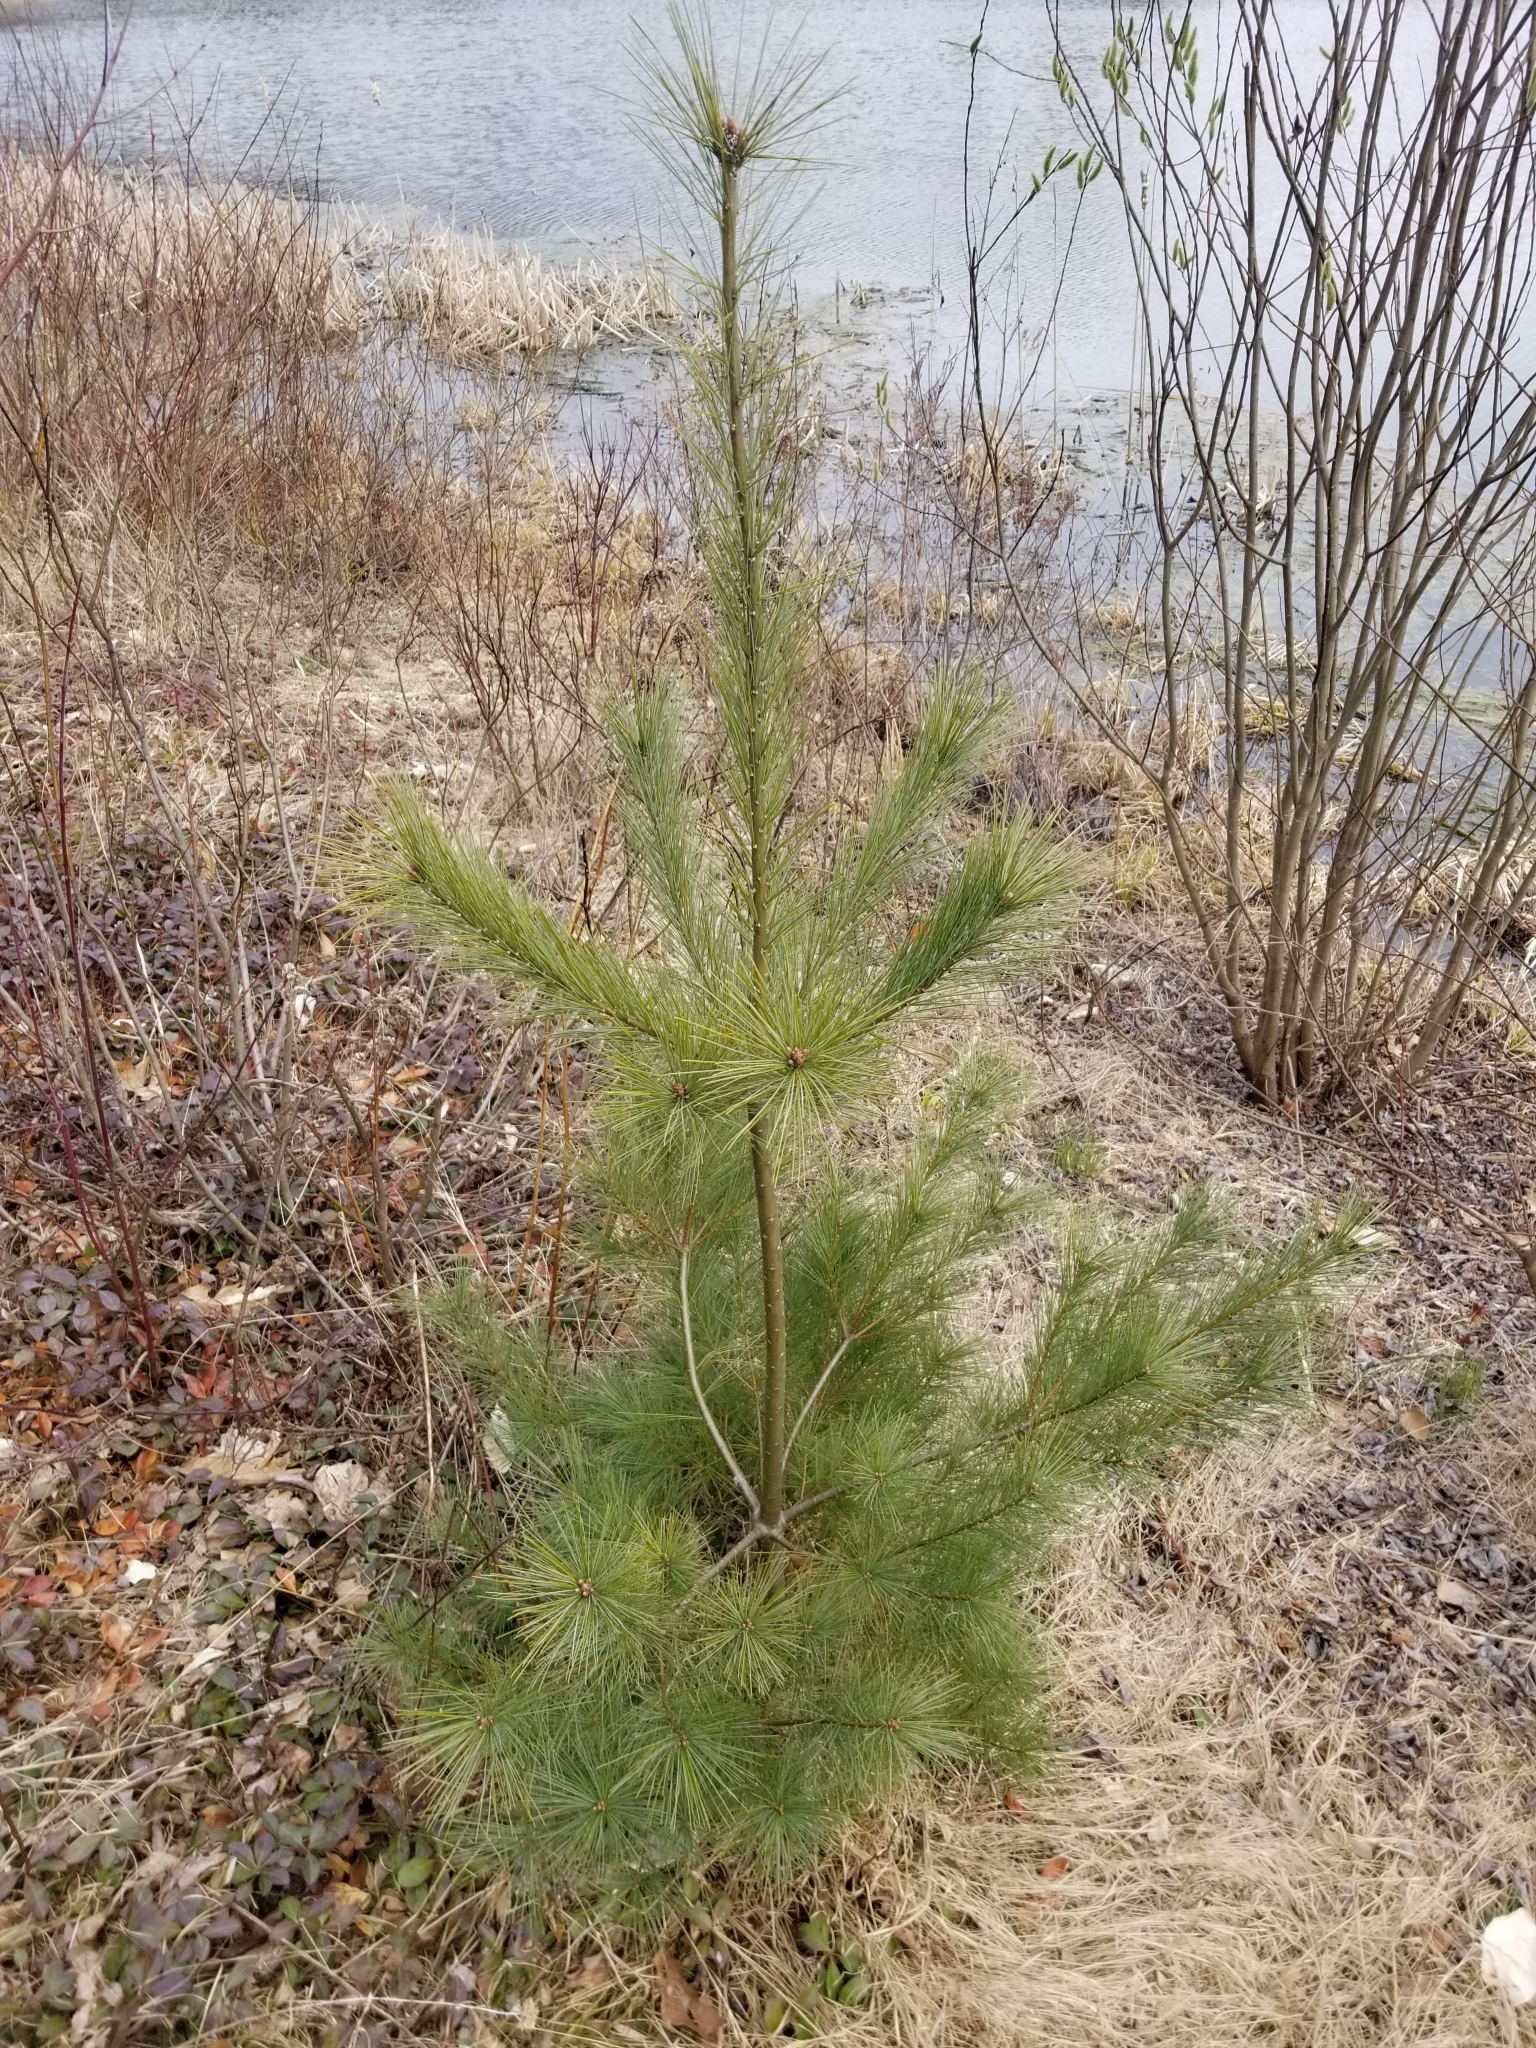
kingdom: Plantae
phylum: Tracheophyta
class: Pinopsida
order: Pinales
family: Pinaceae
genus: Pinus
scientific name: Pinus strobus
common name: Weymouth pine
